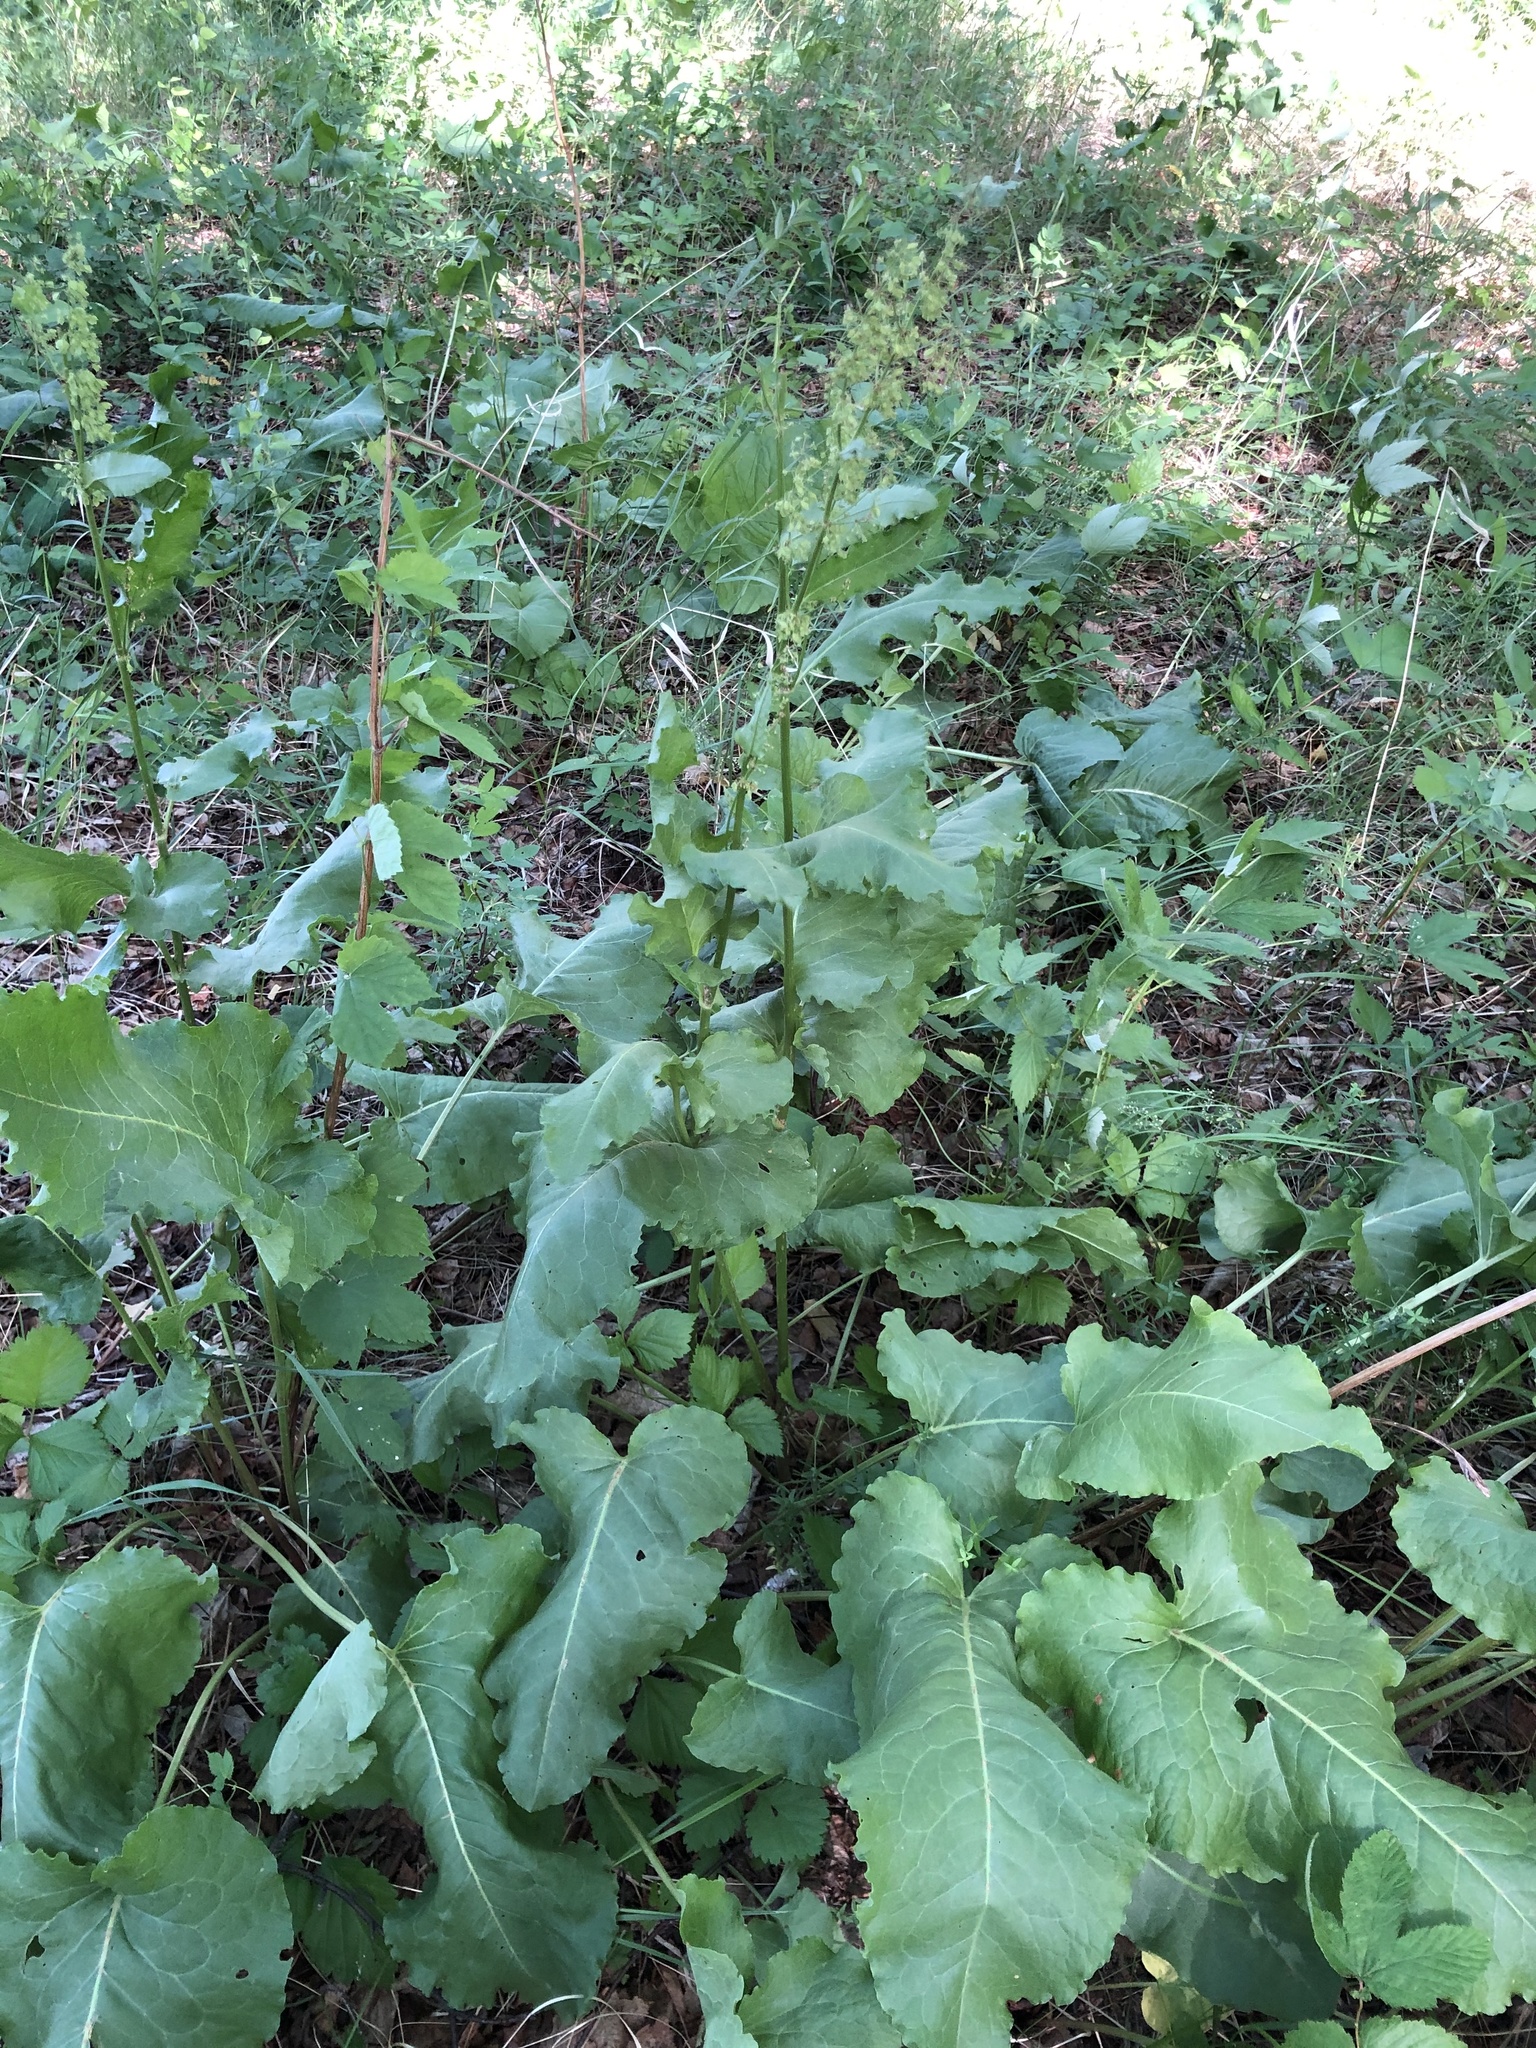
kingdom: Plantae
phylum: Tracheophyta
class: Magnoliopsida
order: Caryophyllales
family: Polygonaceae
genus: Rumex
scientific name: Rumex confertus
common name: Russian dock
